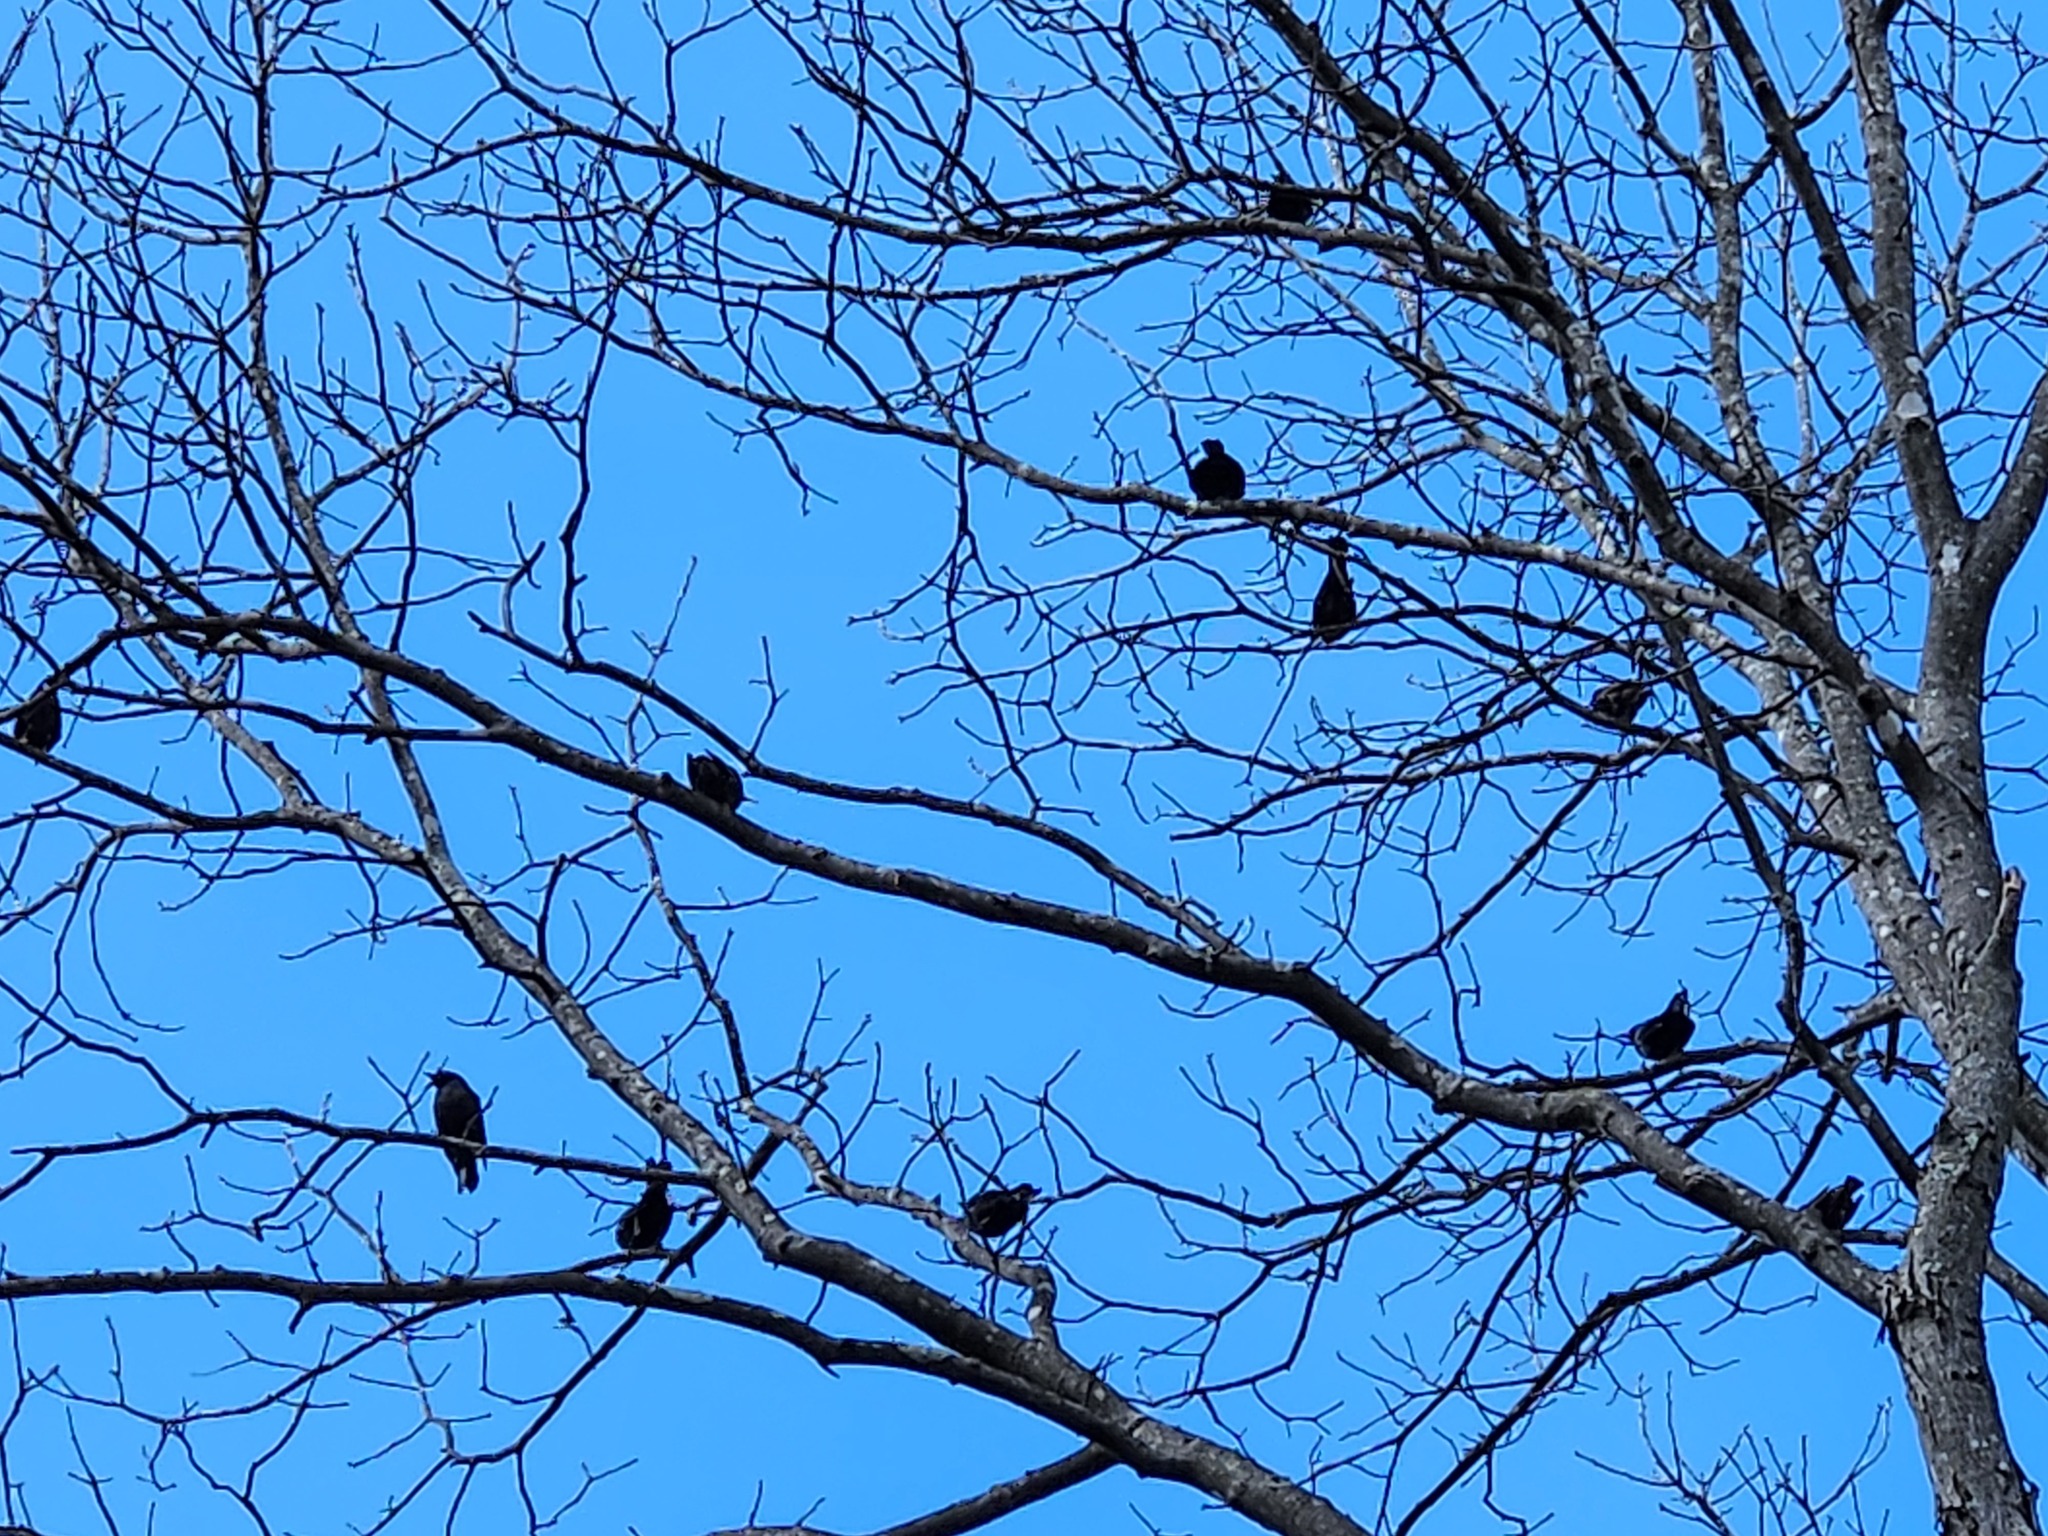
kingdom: Animalia
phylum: Chordata
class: Aves
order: Passeriformes
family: Icteridae
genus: Euphagus
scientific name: Euphagus carolinus
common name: Rusty blackbird
